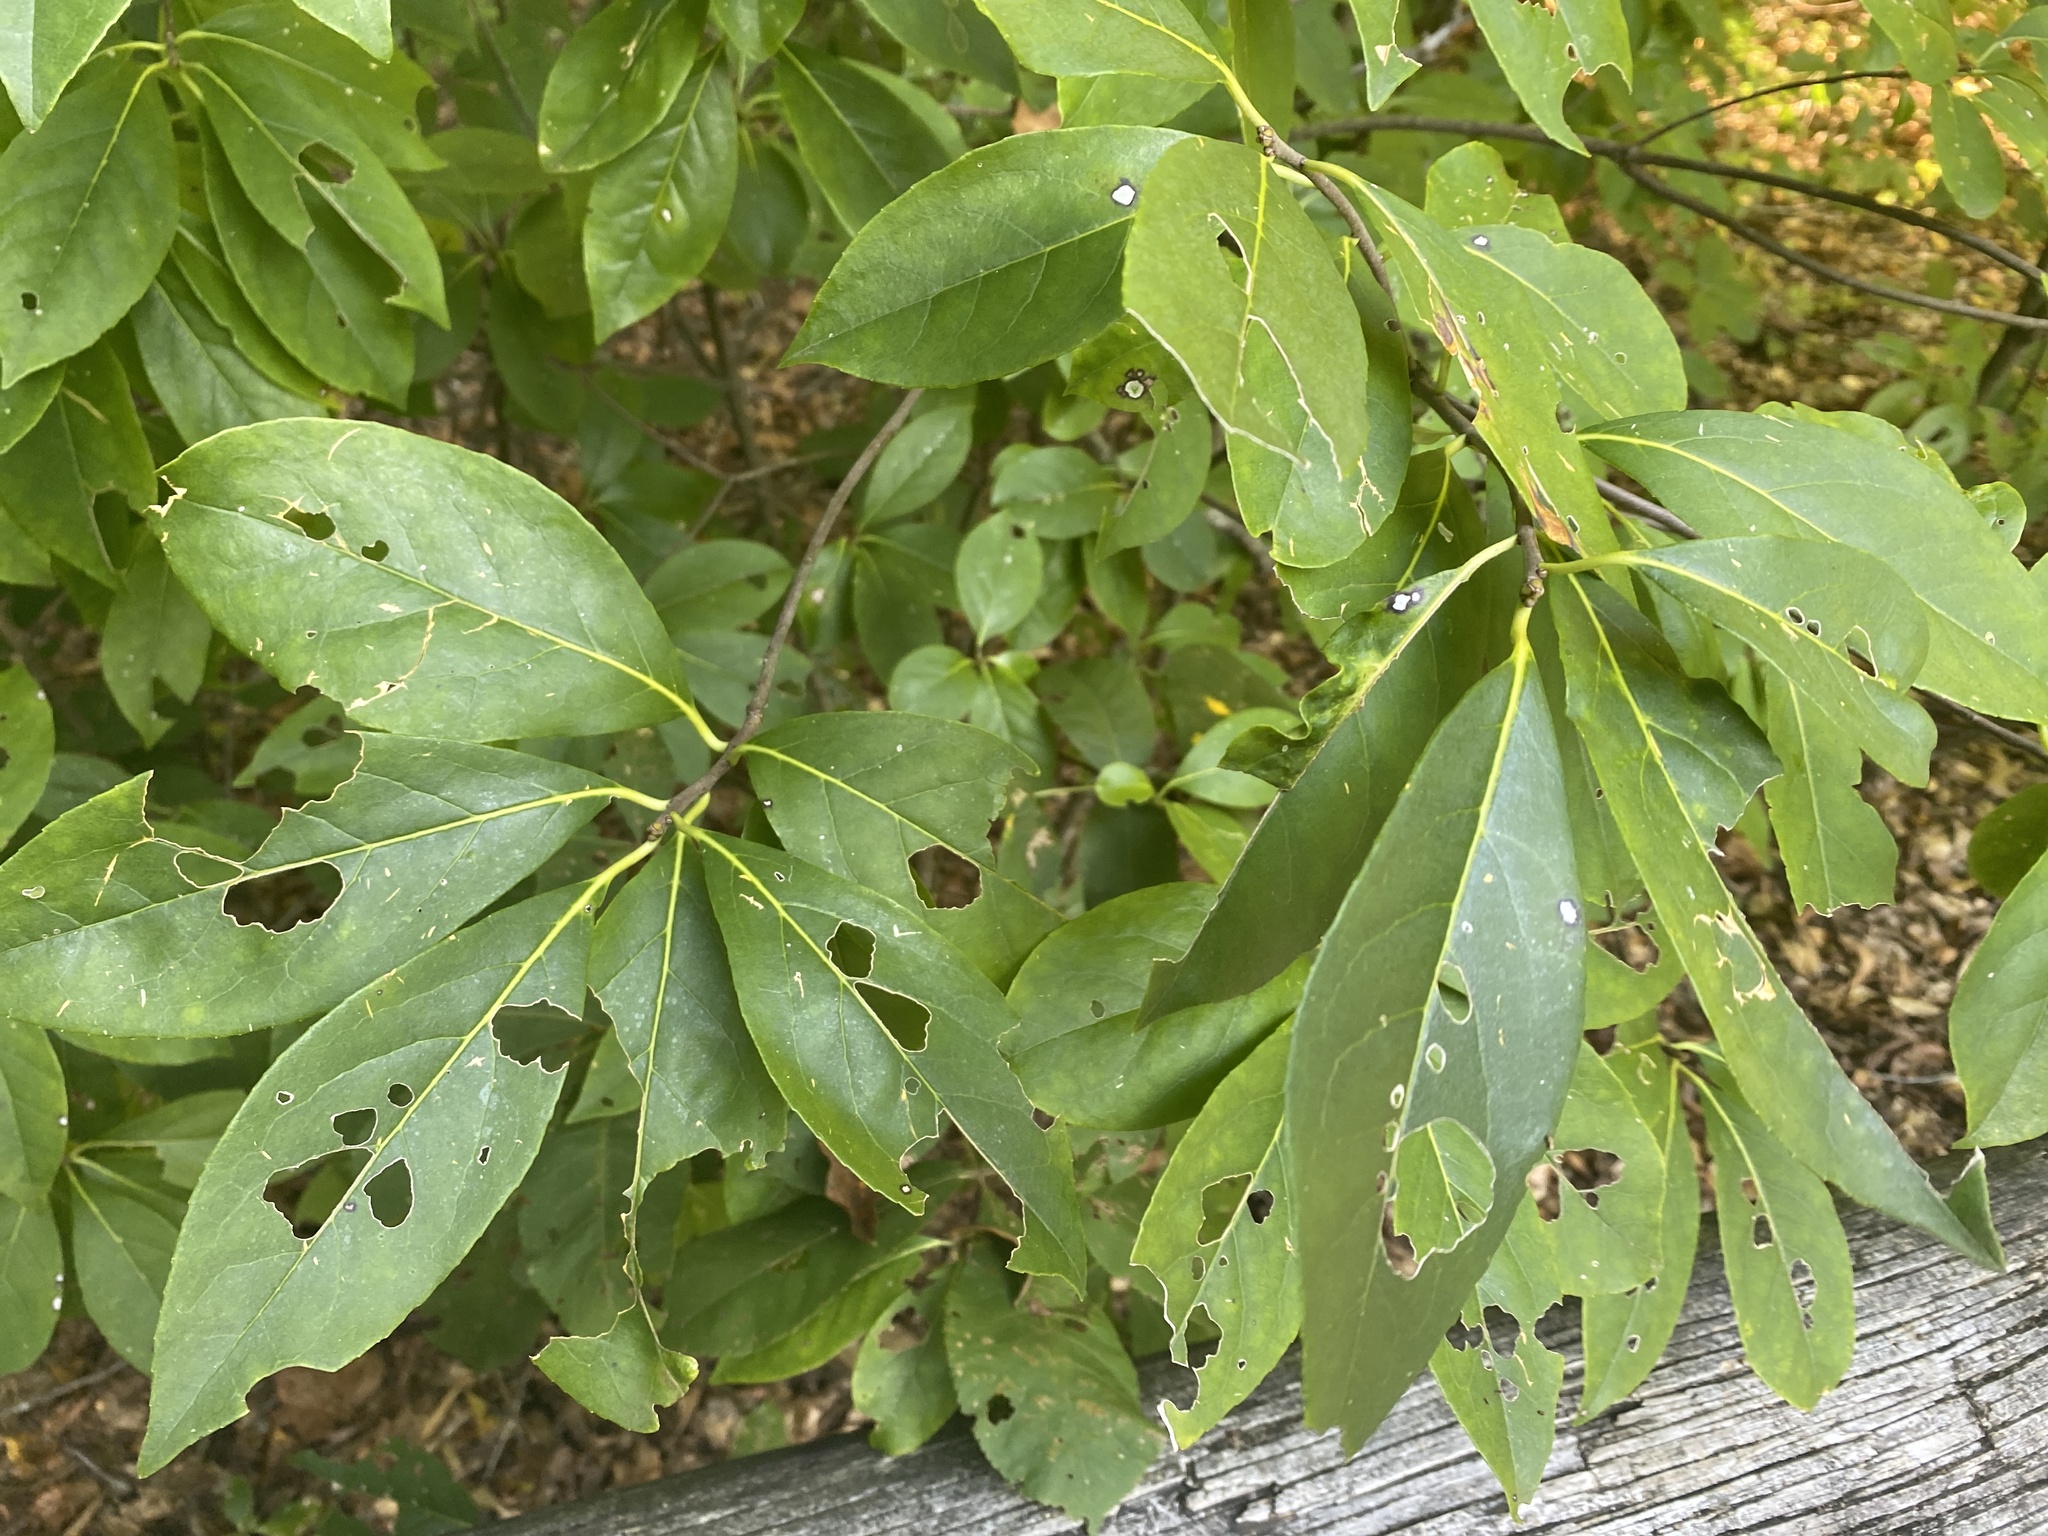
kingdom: Plantae
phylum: Tracheophyta
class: Magnoliopsida
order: Ericales
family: Symplocaceae
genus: Symplocos
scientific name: Symplocos tinctoria
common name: Horse-sugar
